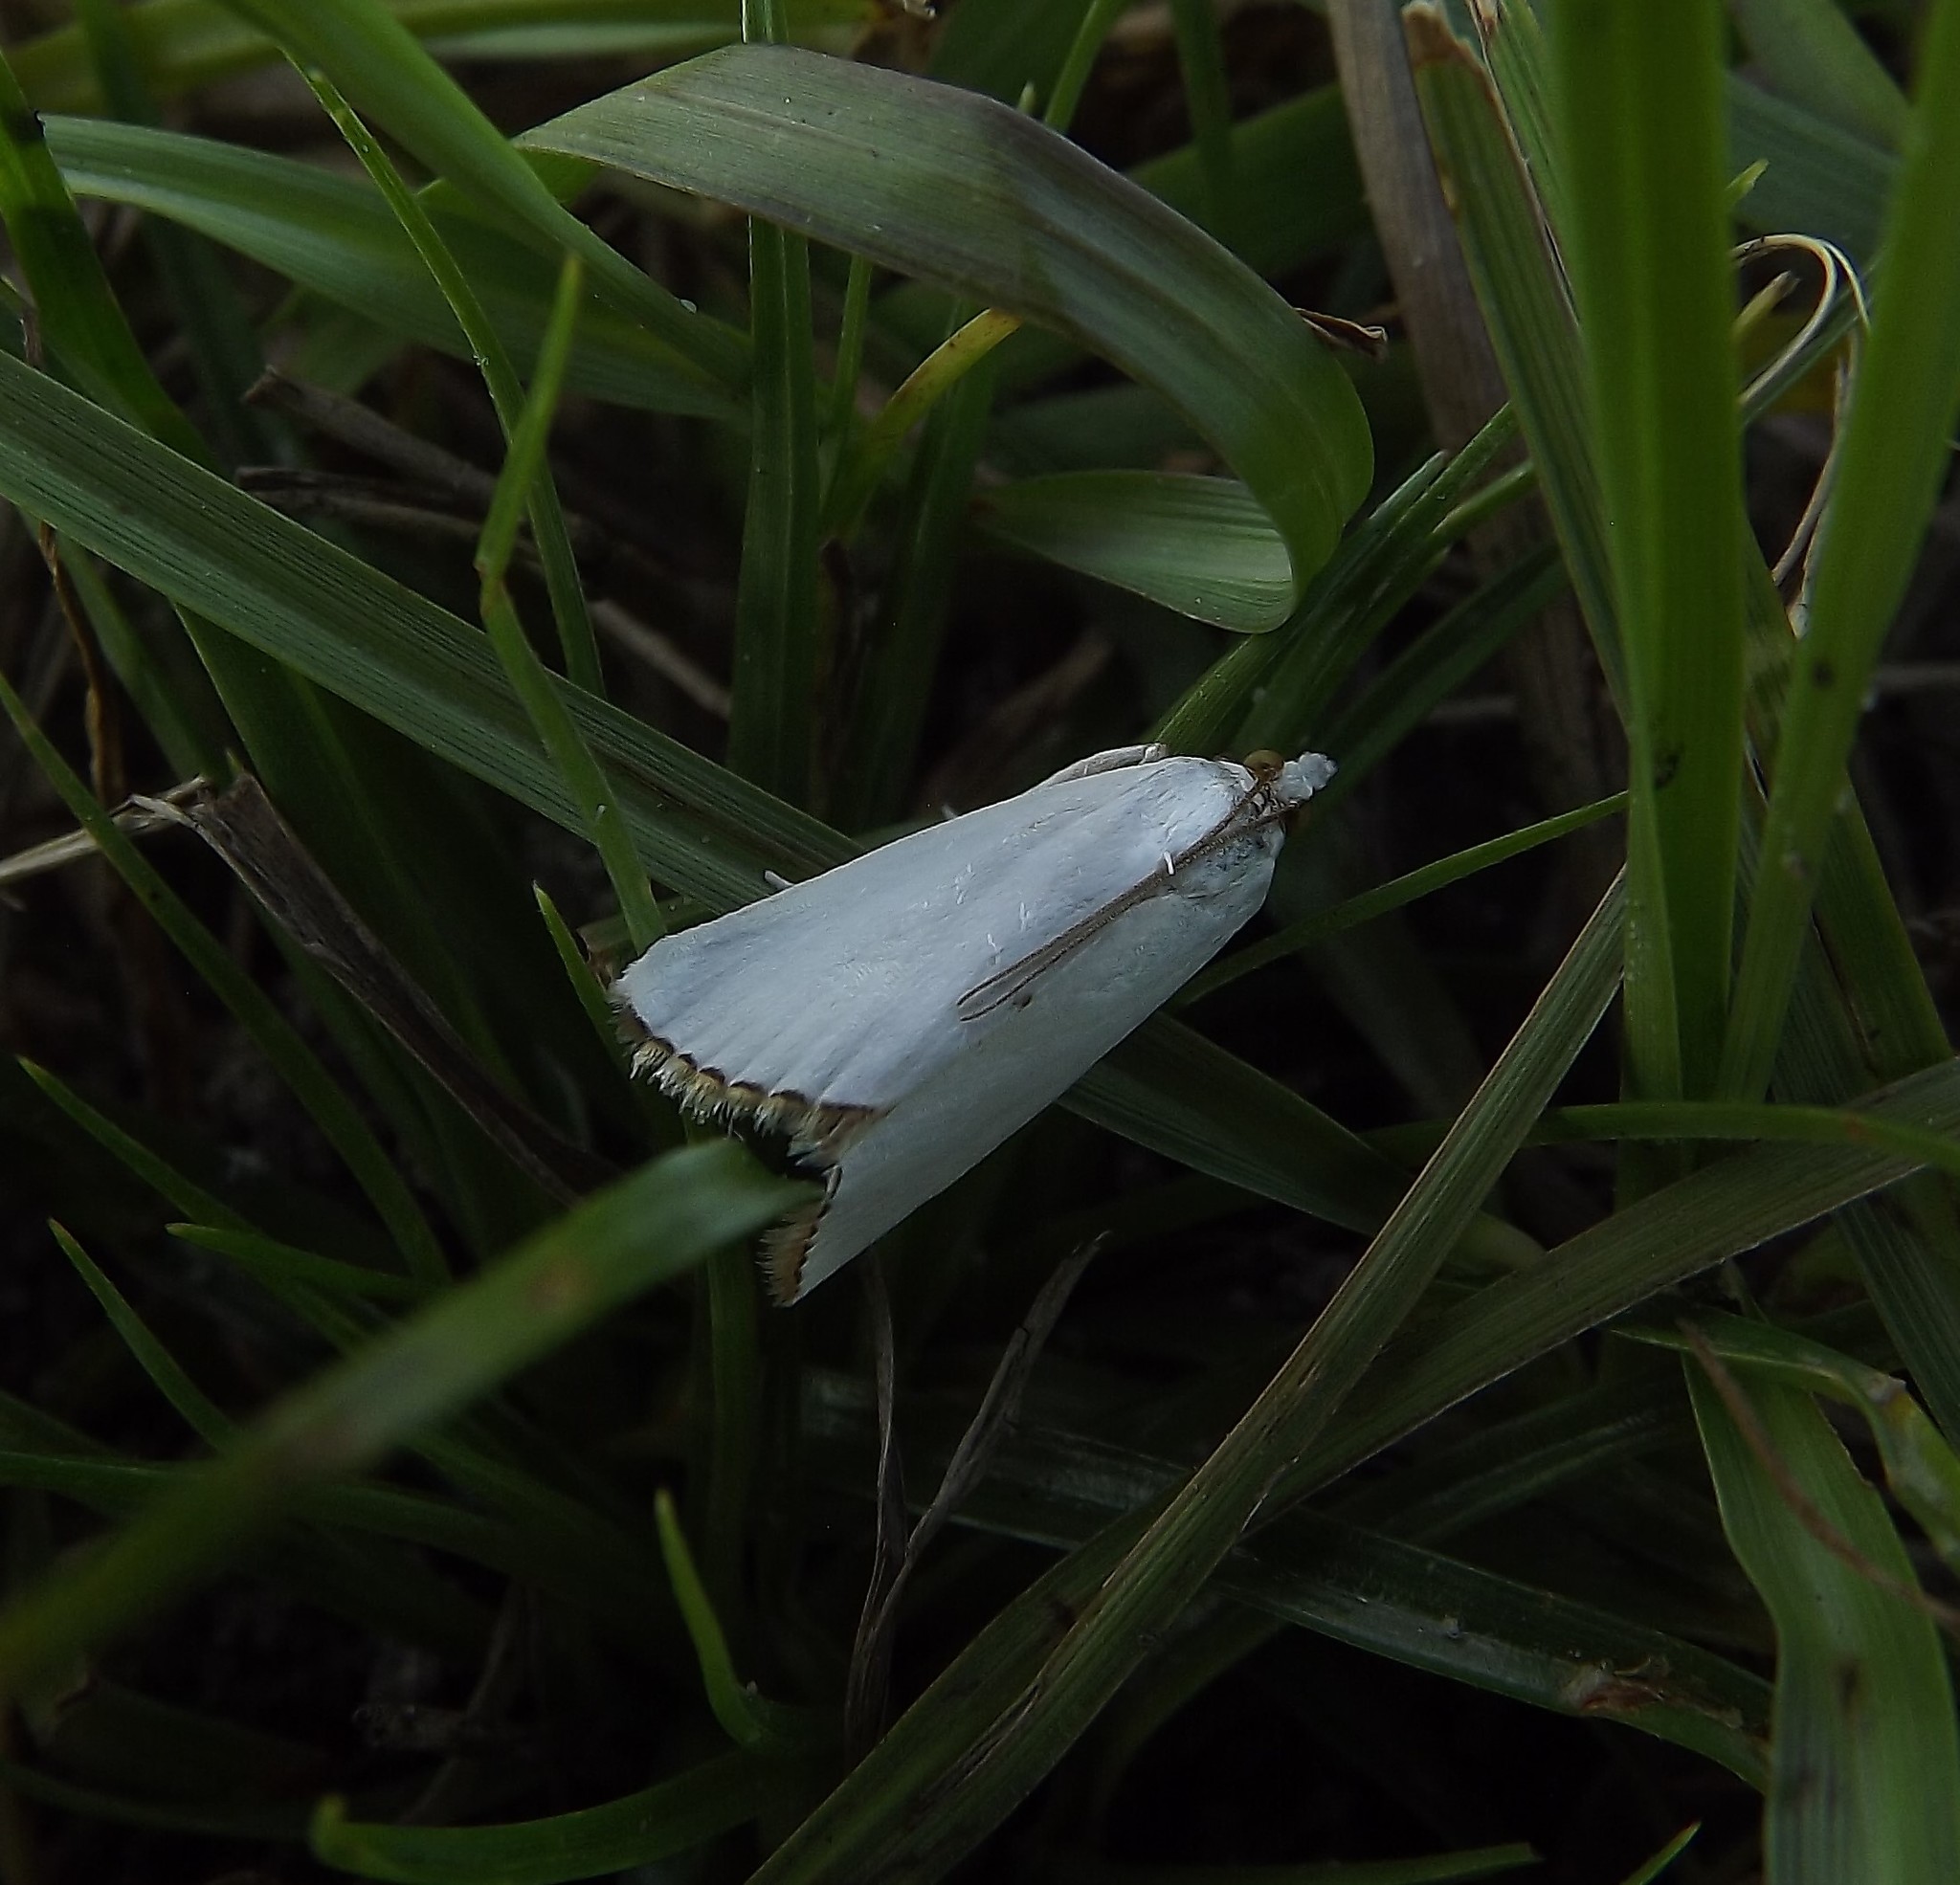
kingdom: Animalia
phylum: Arthropoda
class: Insecta
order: Lepidoptera
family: Crambidae
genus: Argyria
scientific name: Argyria nivalis
